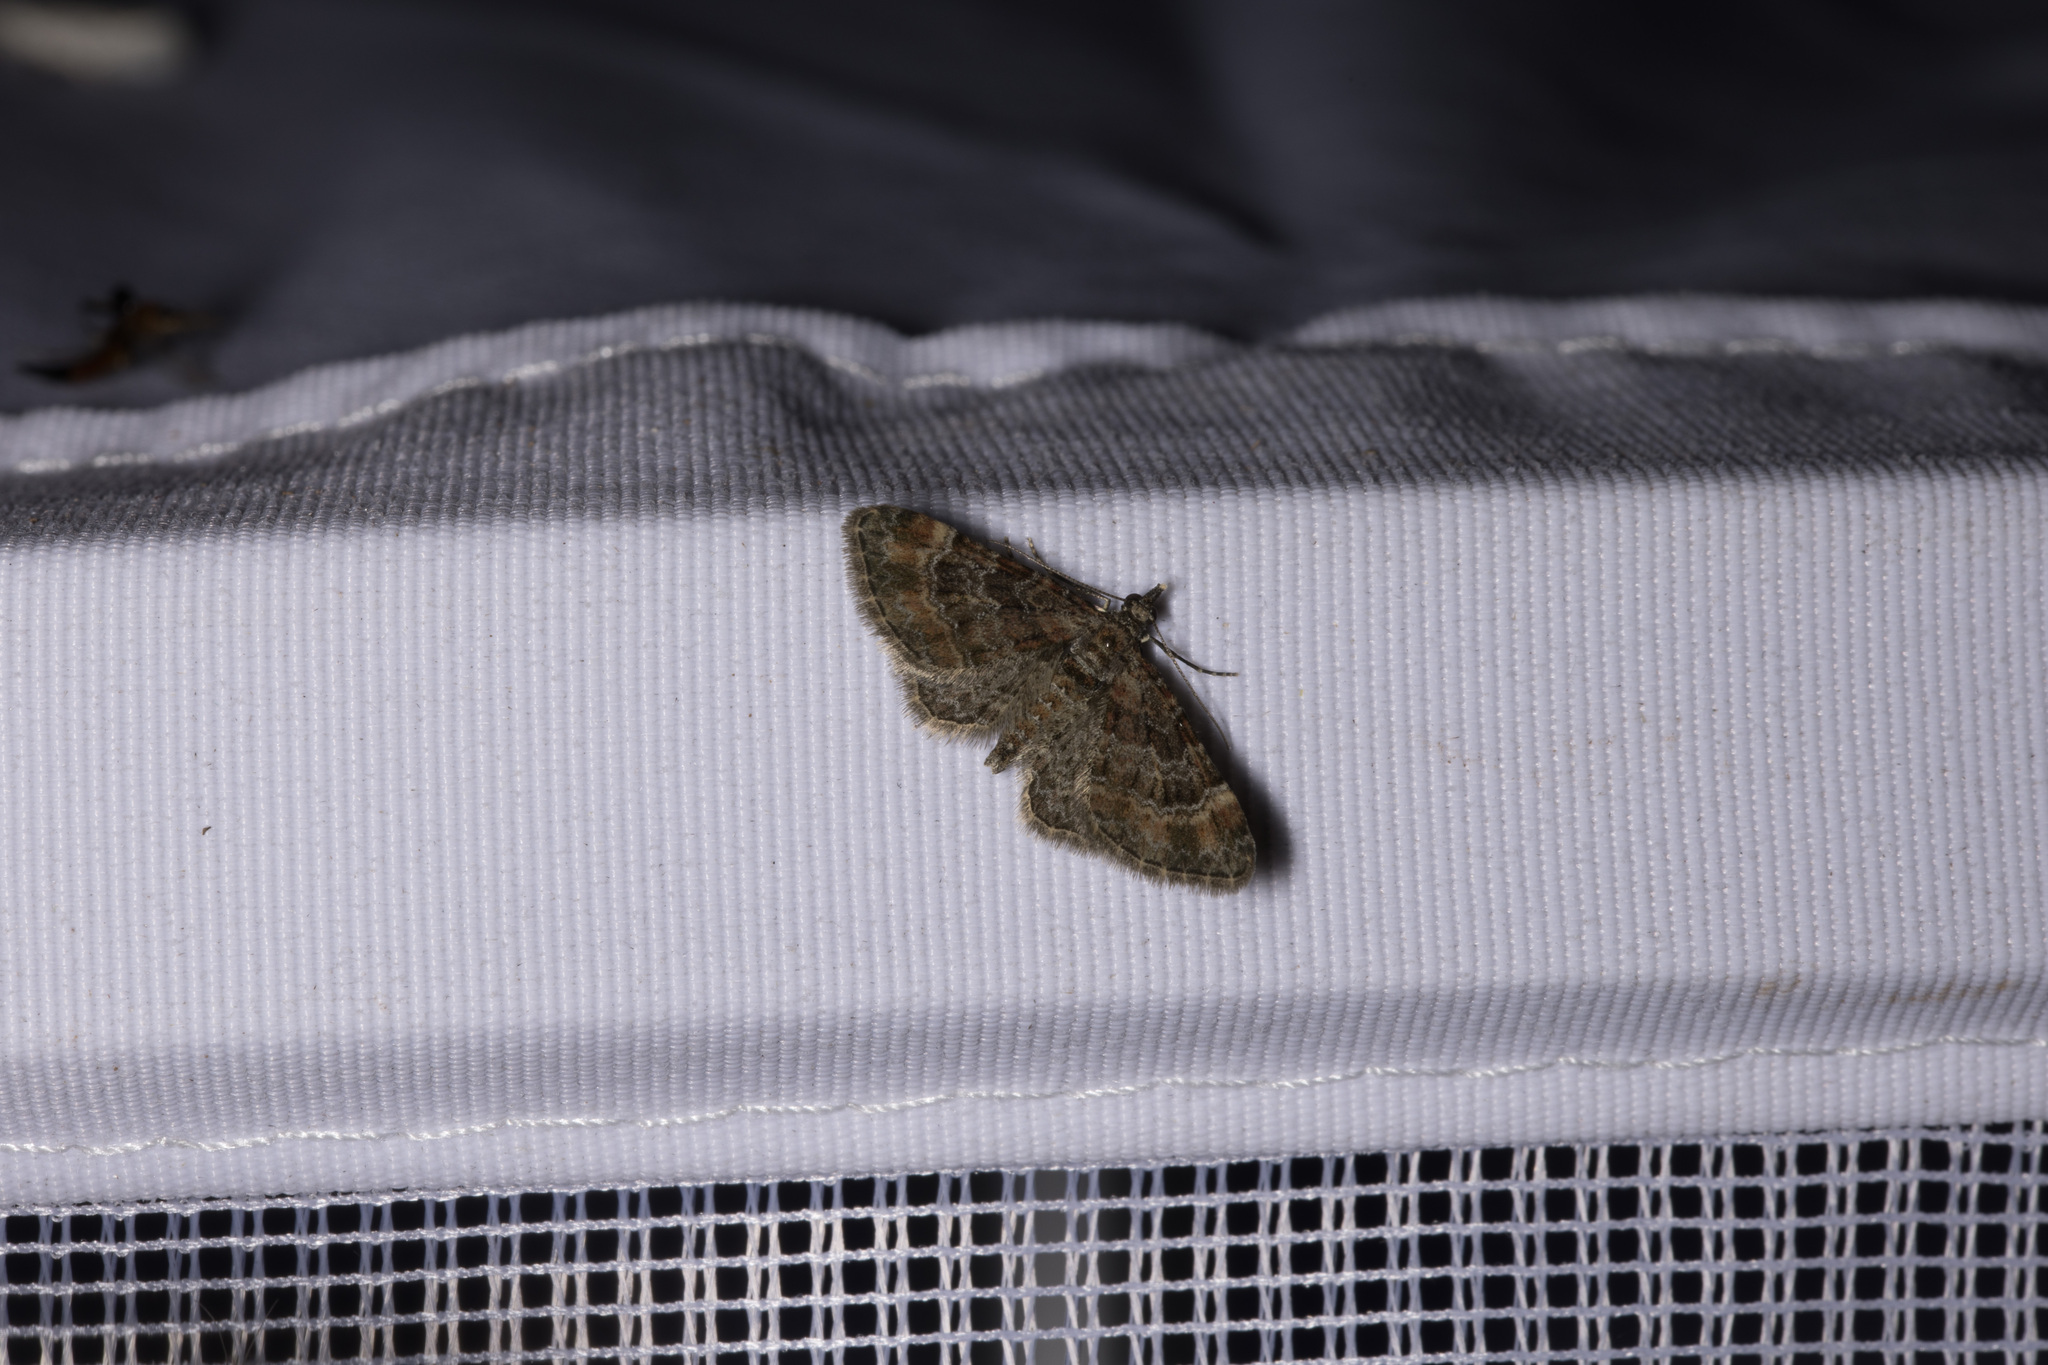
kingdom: Animalia
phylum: Arthropoda
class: Insecta
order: Lepidoptera
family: Geometridae
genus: Gymnoscelis
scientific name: Gymnoscelis rufifasciata
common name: Double-striped pug
